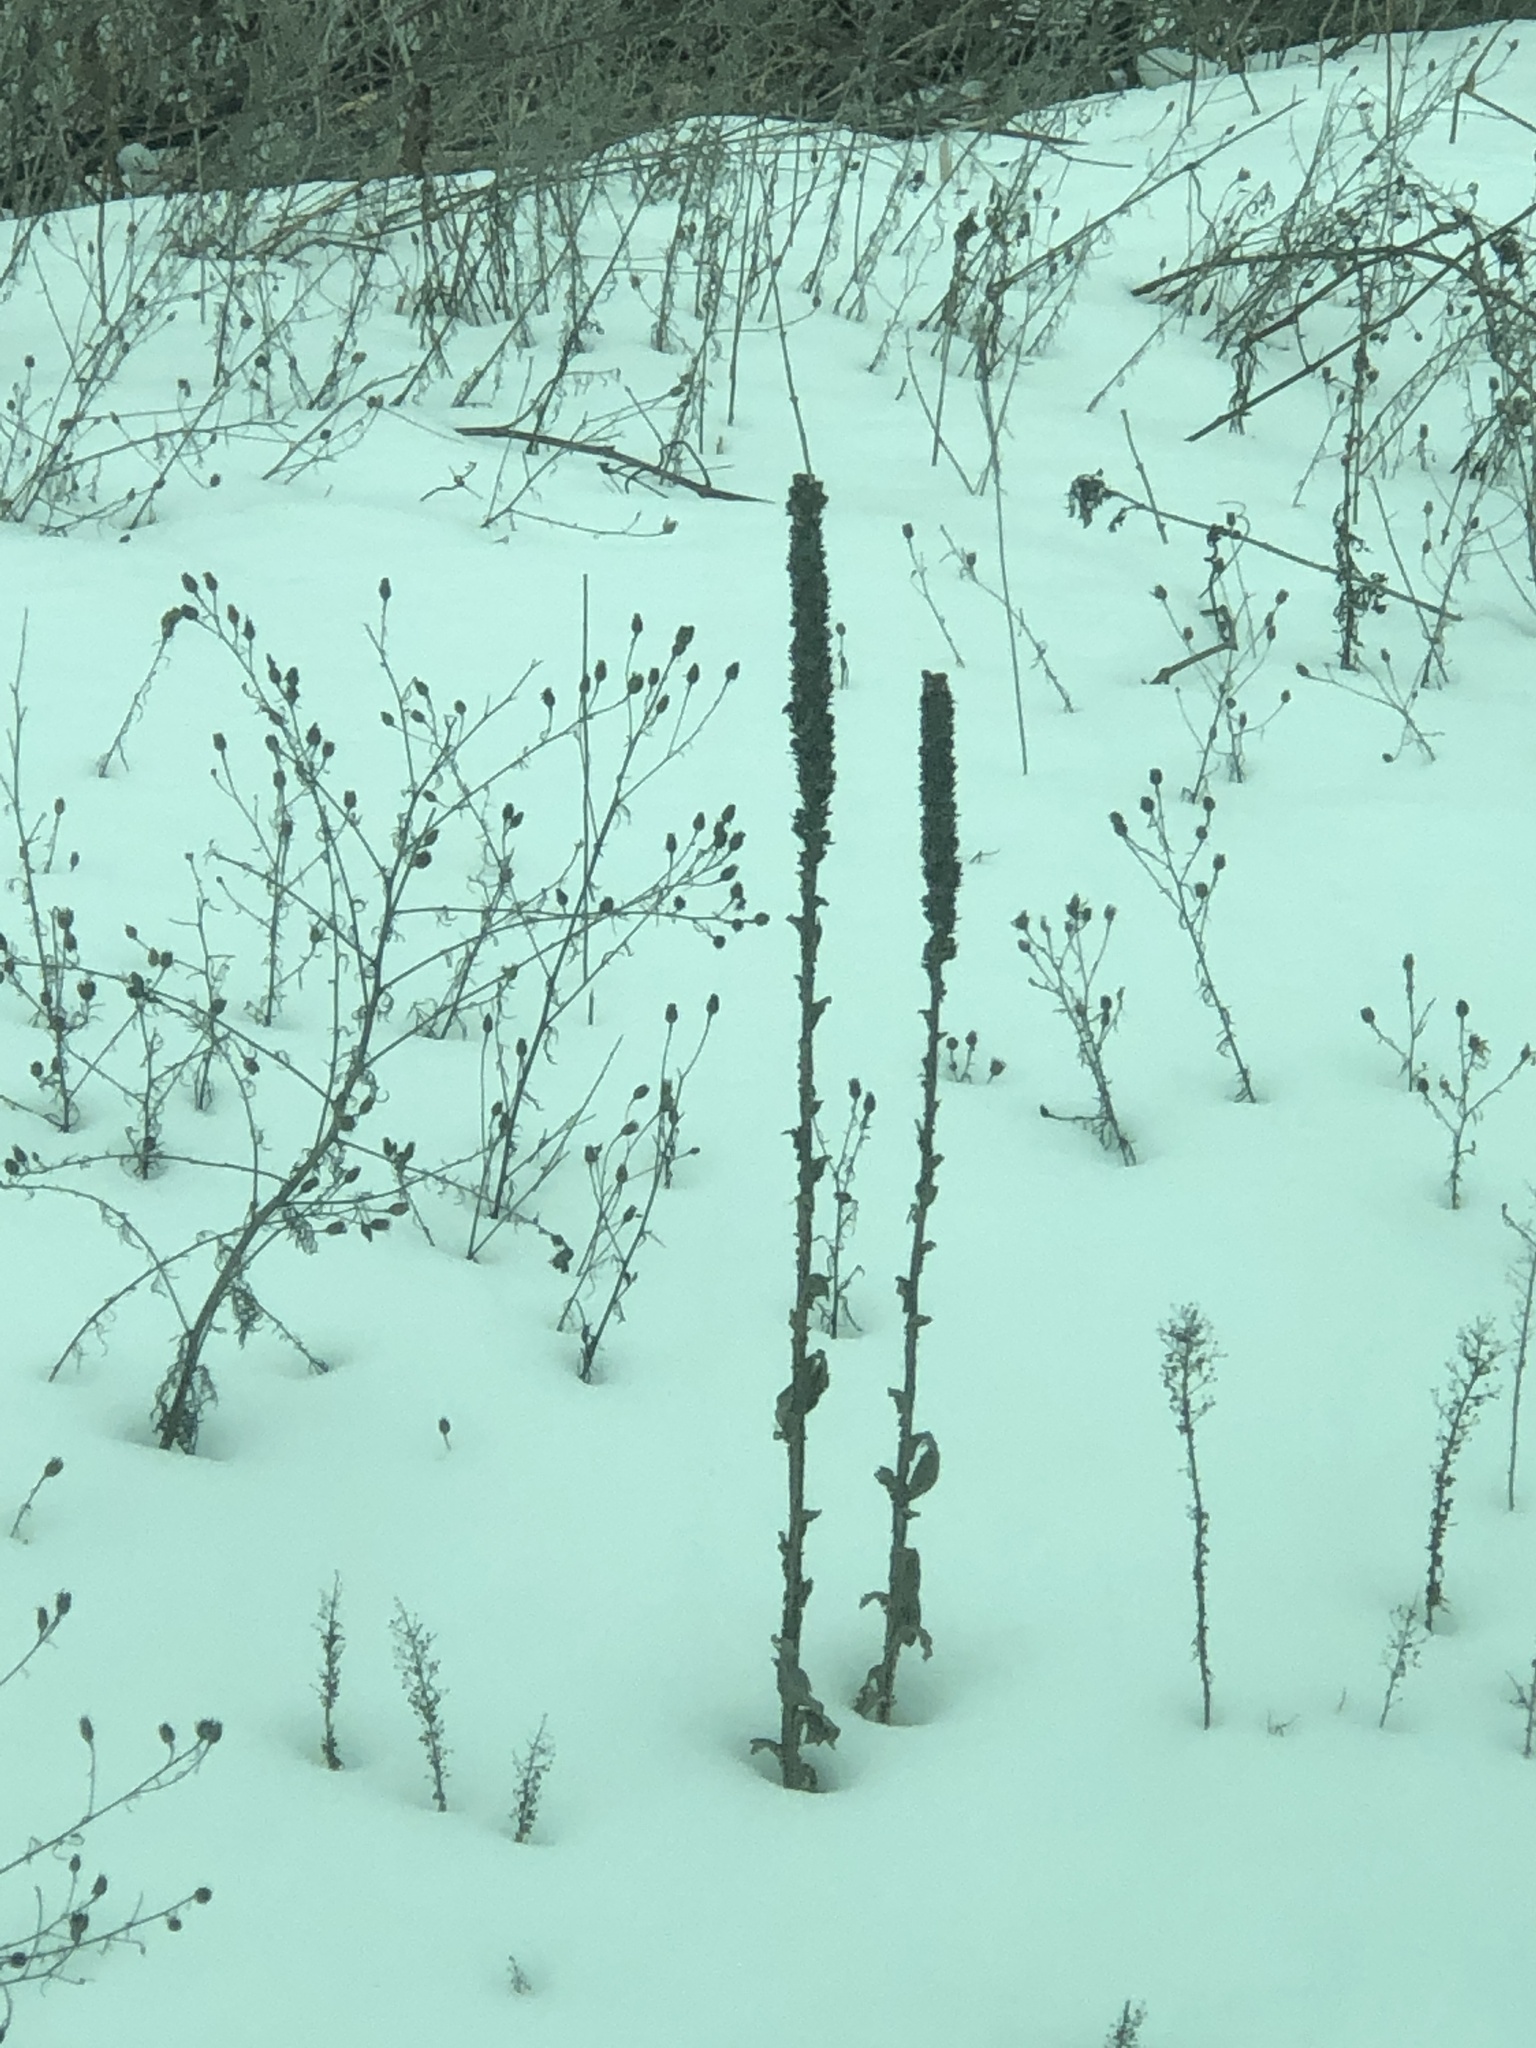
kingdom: Plantae
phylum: Tracheophyta
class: Magnoliopsida
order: Lamiales
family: Scrophulariaceae
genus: Verbascum
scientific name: Verbascum thapsus
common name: Common mullein
